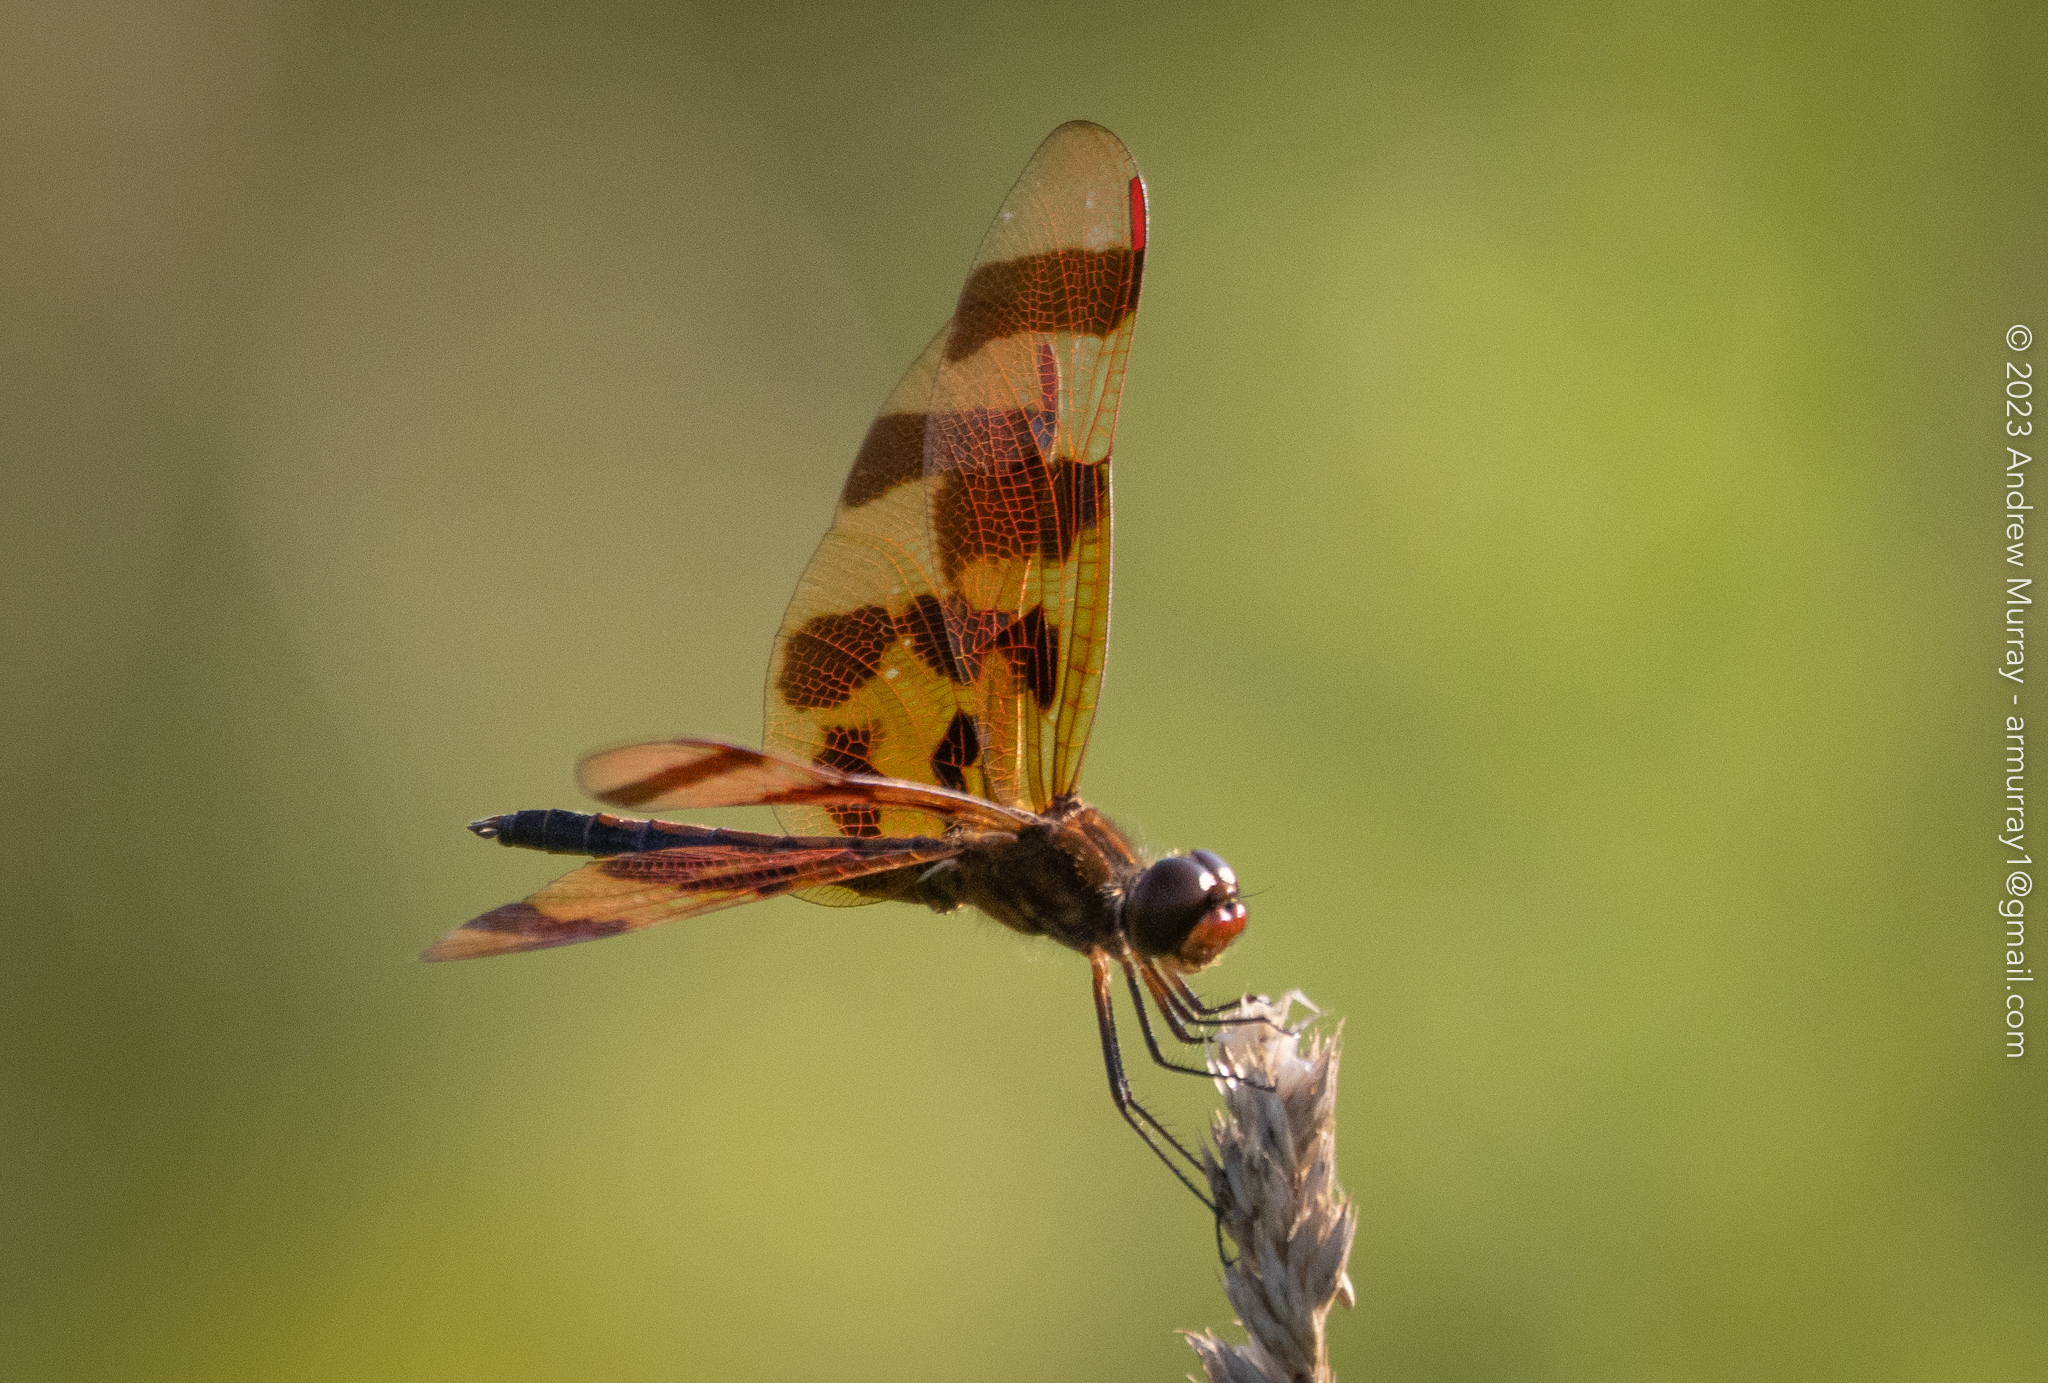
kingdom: Animalia
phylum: Arthropoda
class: Insecta
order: Odonata
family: Libellulidae
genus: Celithemis
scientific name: Celithemis eponina
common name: Halloween pennant
